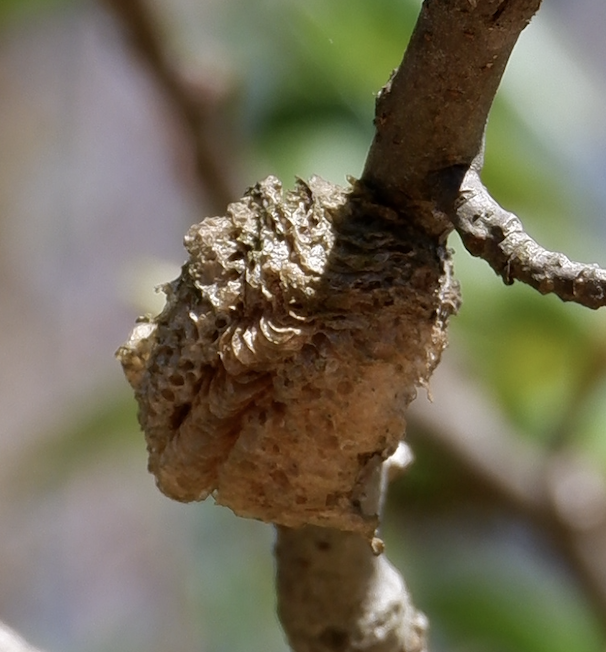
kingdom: Animalia
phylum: Arthropoda
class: Insecta
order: Mantodea
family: Mantidae
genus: Tenodera
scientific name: Tenodera sinensis
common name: Chinese mantis
